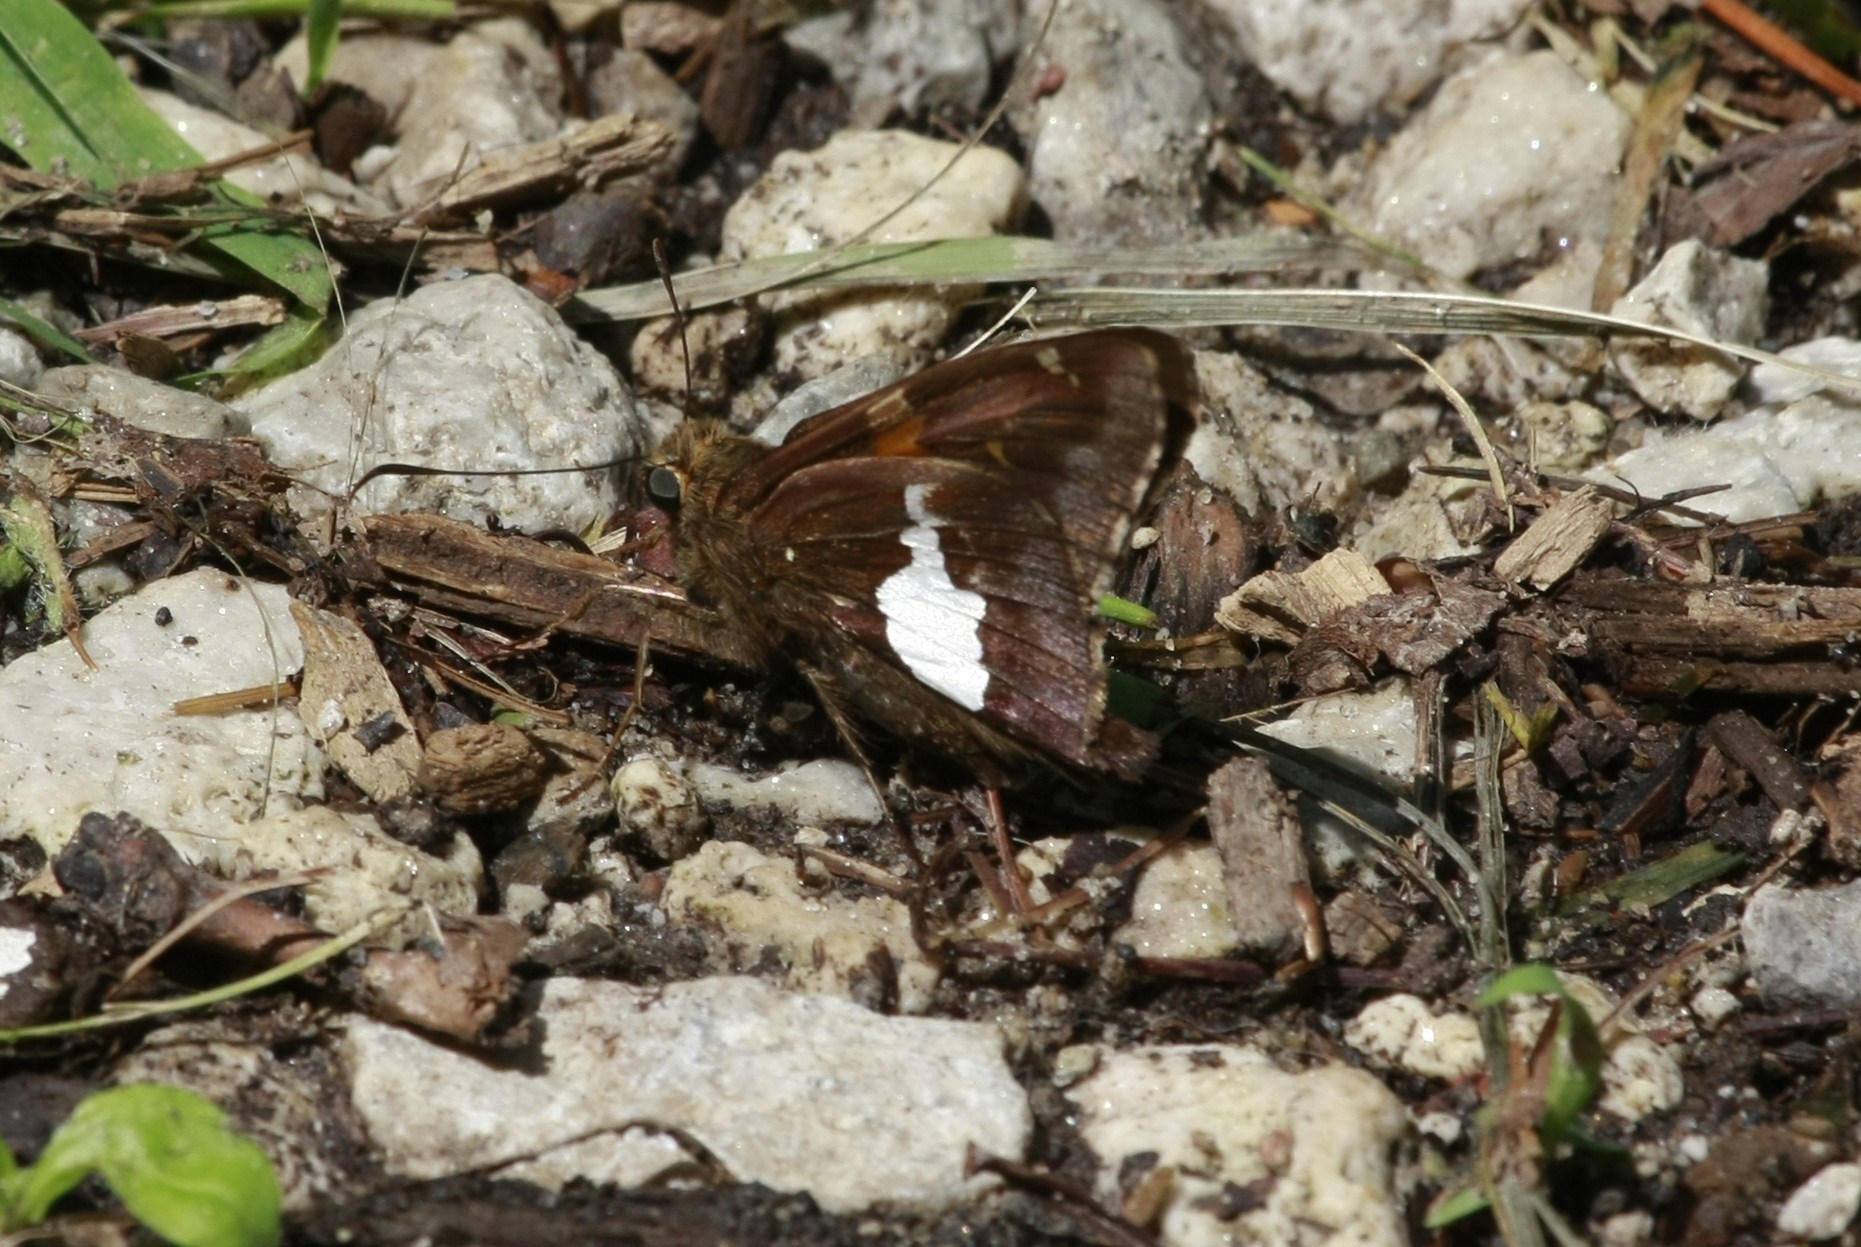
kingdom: Animalia
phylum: Arthropoda
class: Insecta
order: Lepidoptera
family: Hesperiidae
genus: Epargyreus
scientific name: Epargyreus clarus
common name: Silver-spotted skipper
